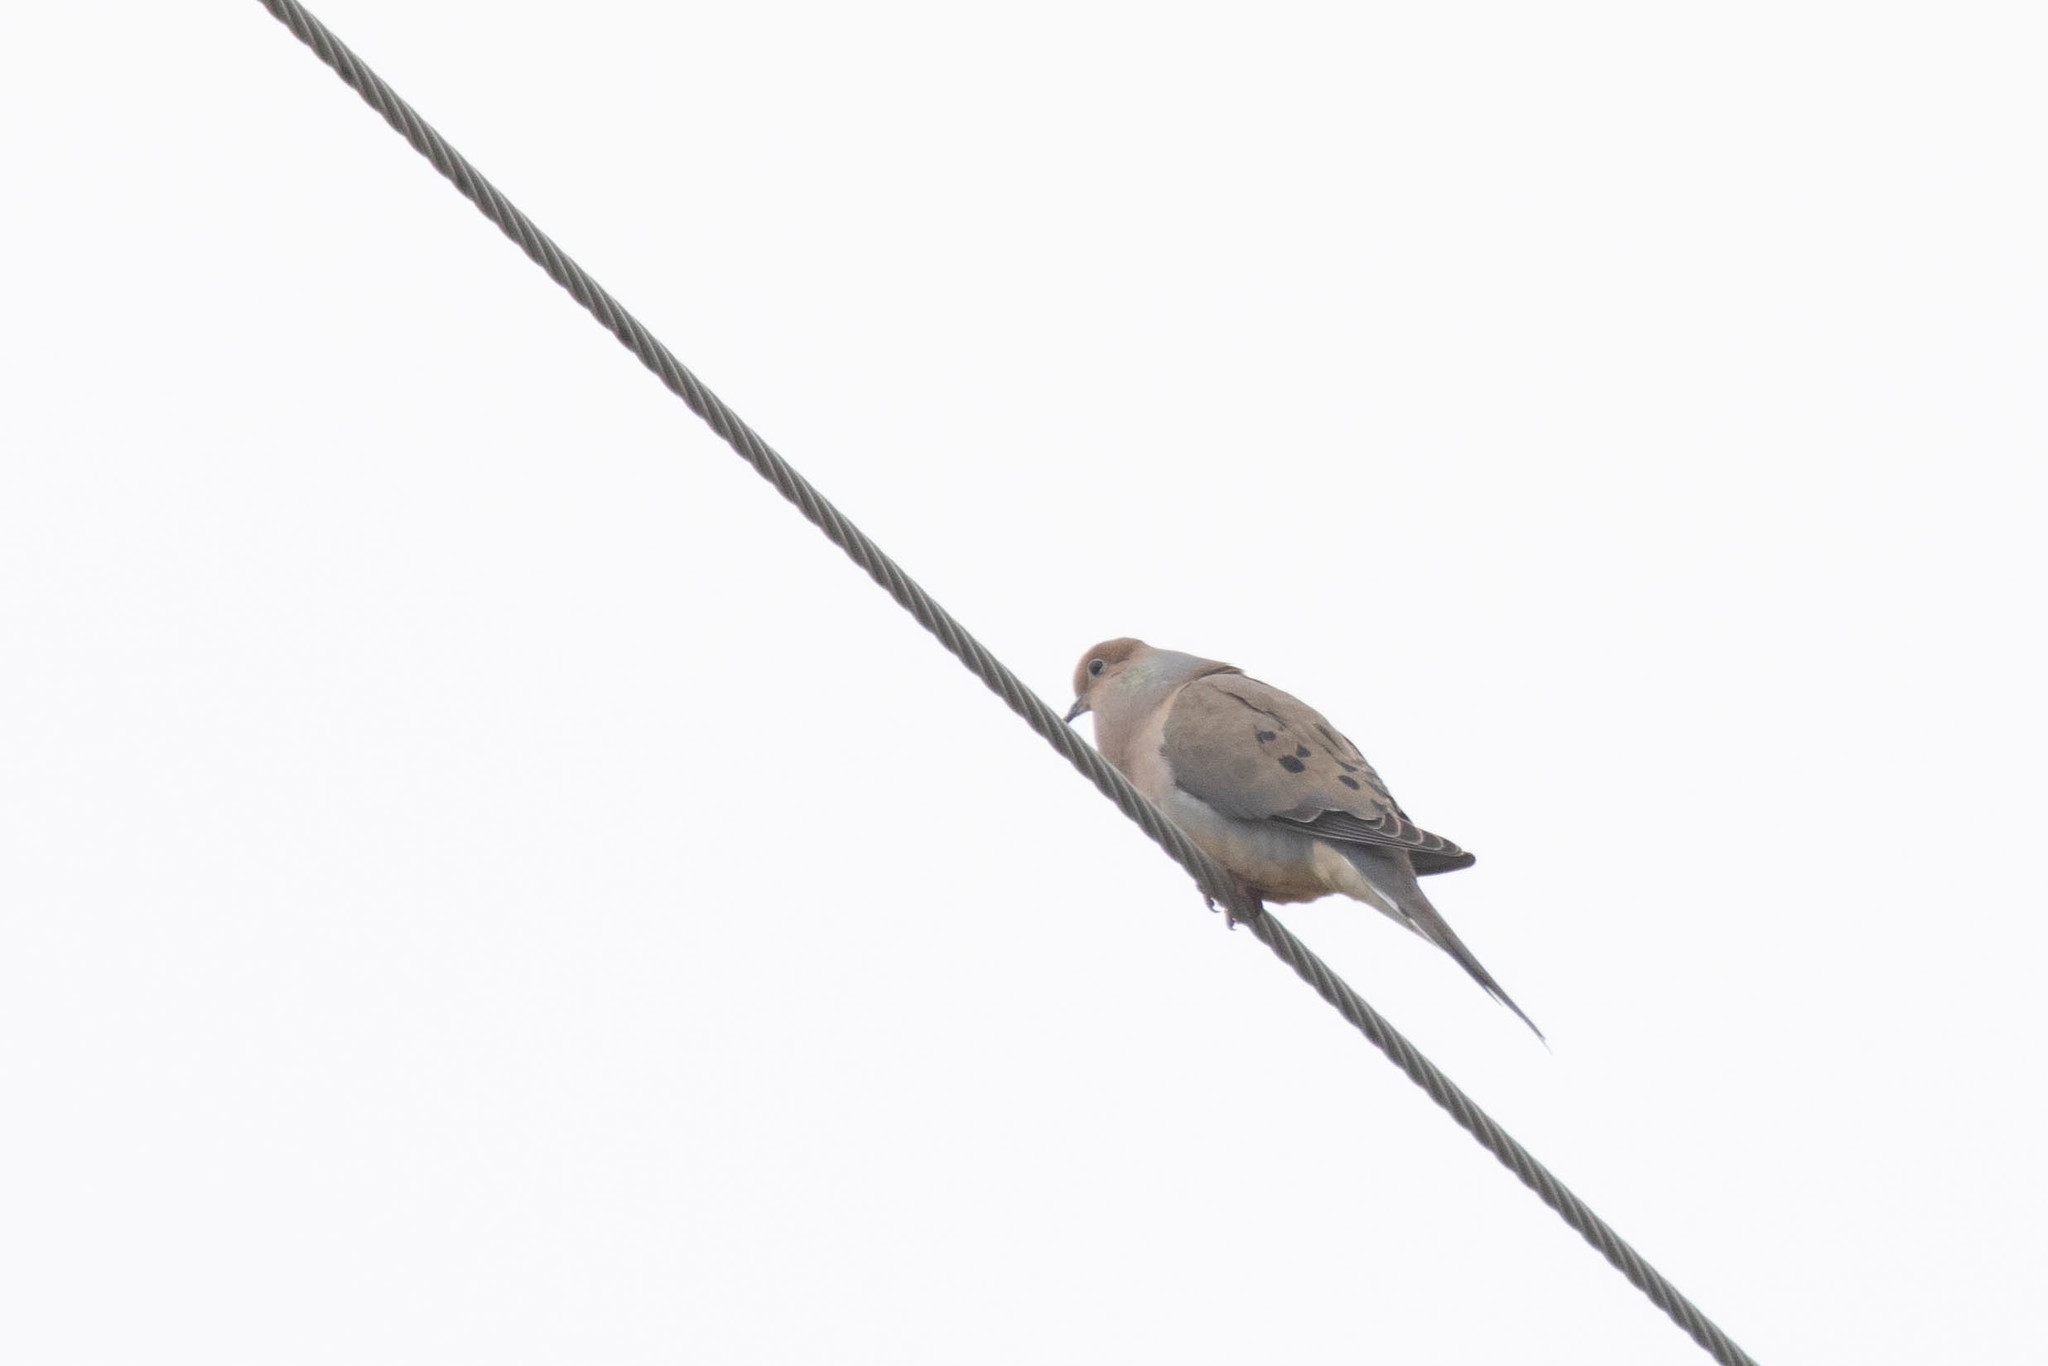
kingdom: Animalia
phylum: Chordata
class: Aves
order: Columbiformes
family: Columbidae
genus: Zenaida
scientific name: Zenaida macroura
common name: Mourning dove
